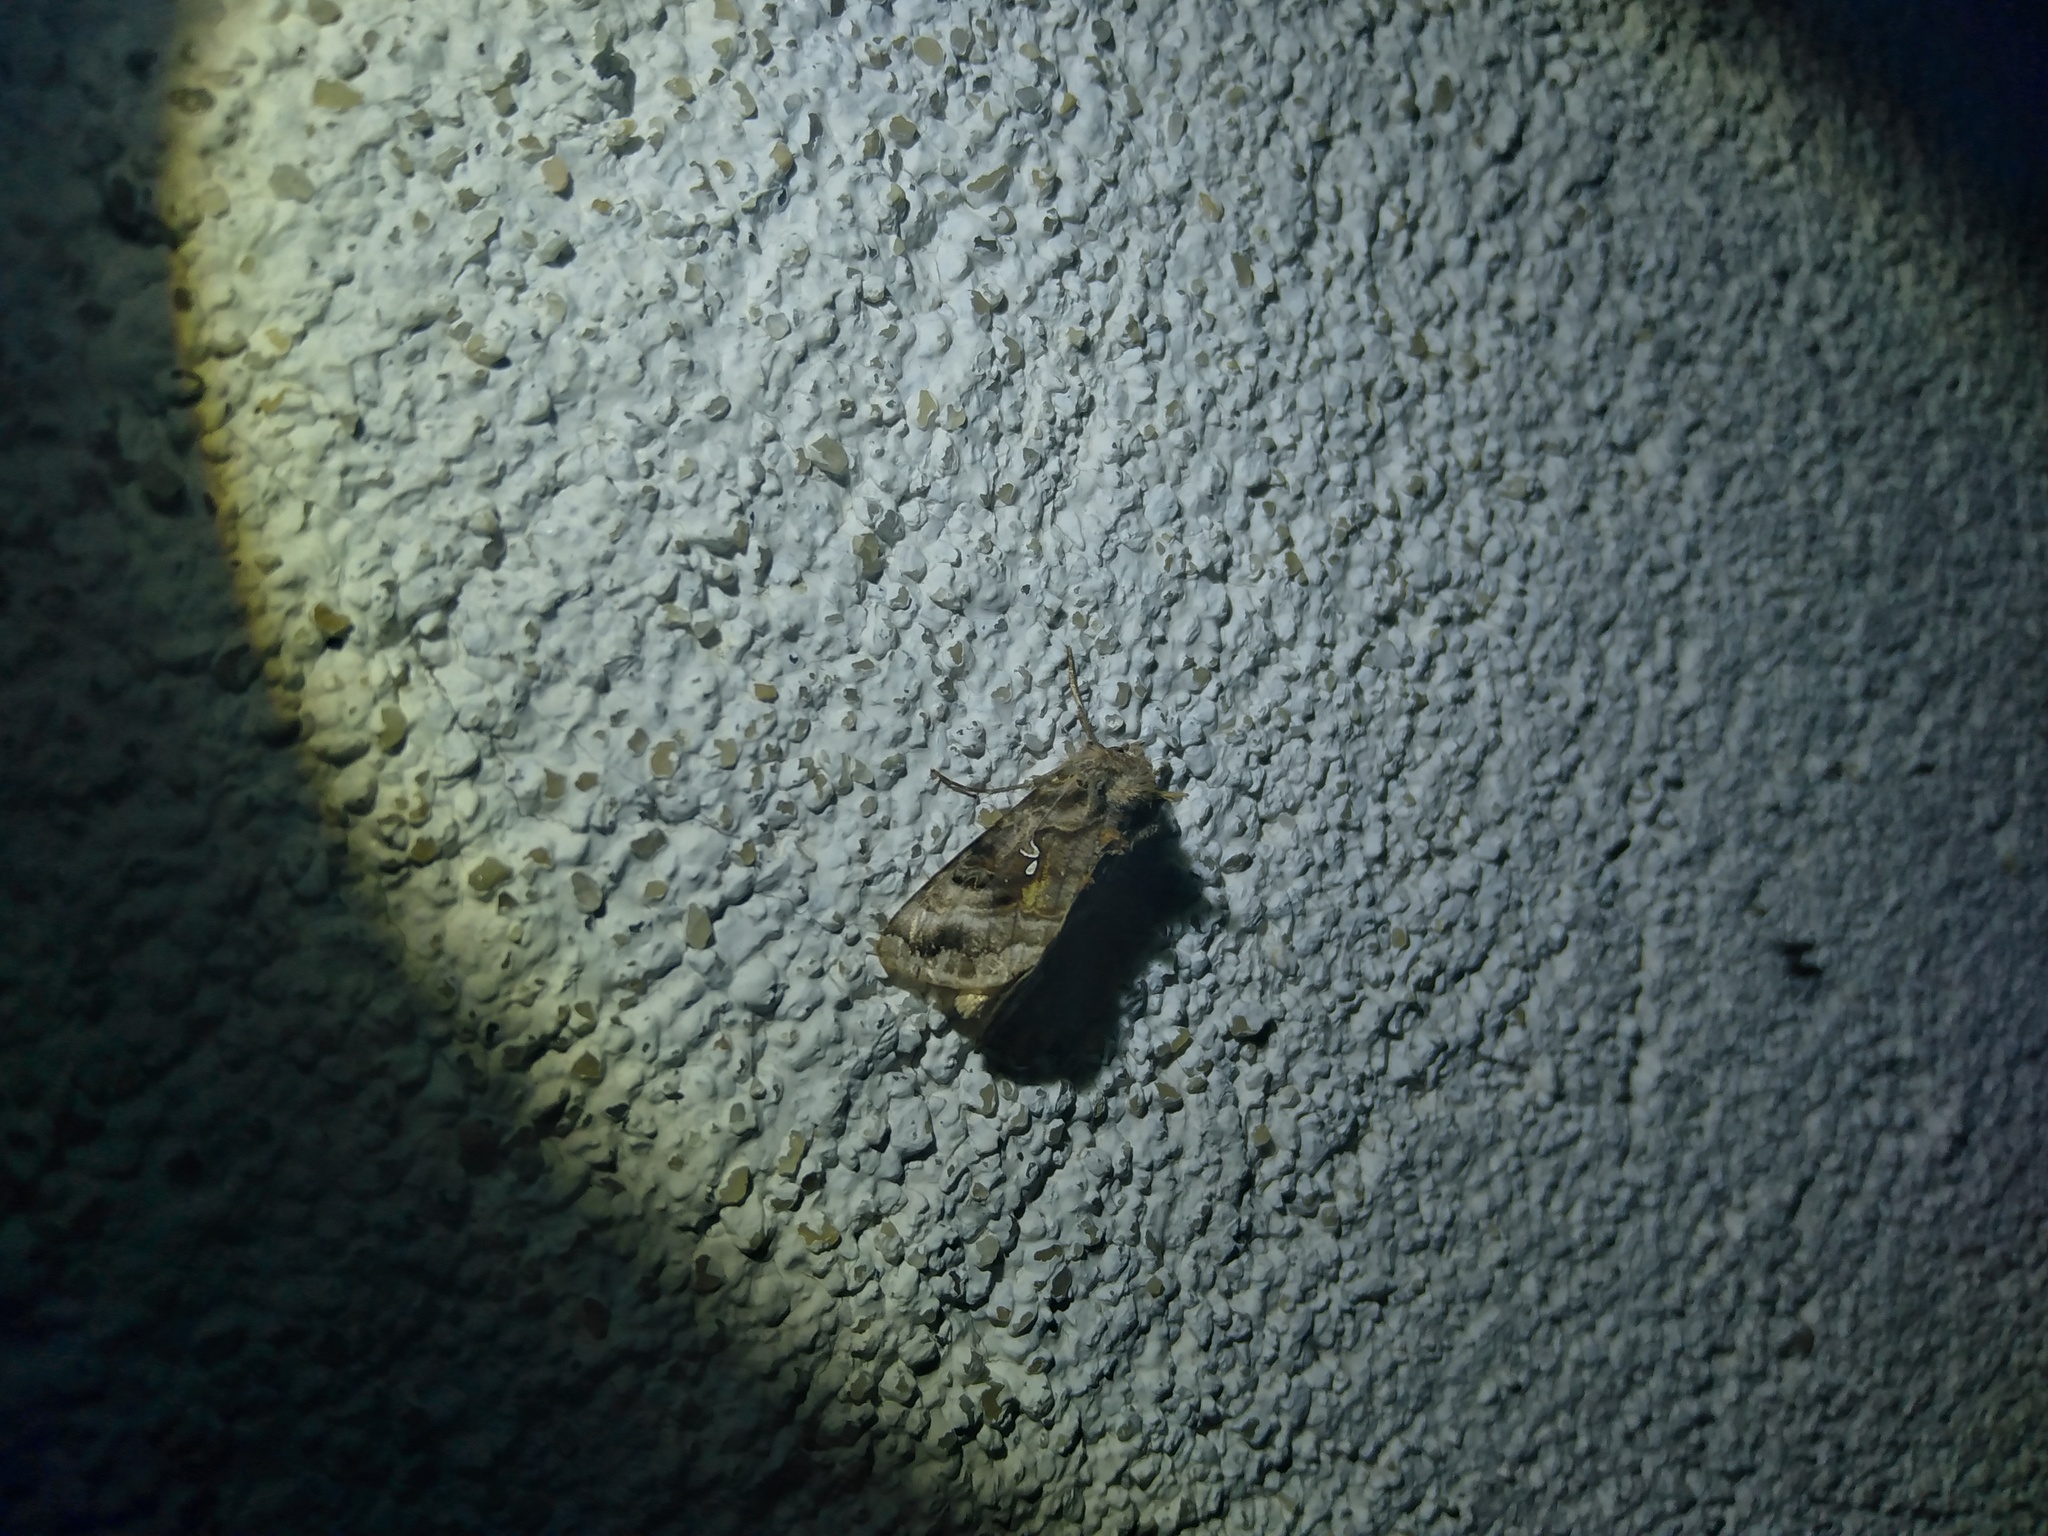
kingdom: Animalia
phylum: Arthropoda
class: Insecta
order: Lepidoptera
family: Noctuidae
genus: Autographa
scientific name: Autographa pulchrina
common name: Beautiful golden y
